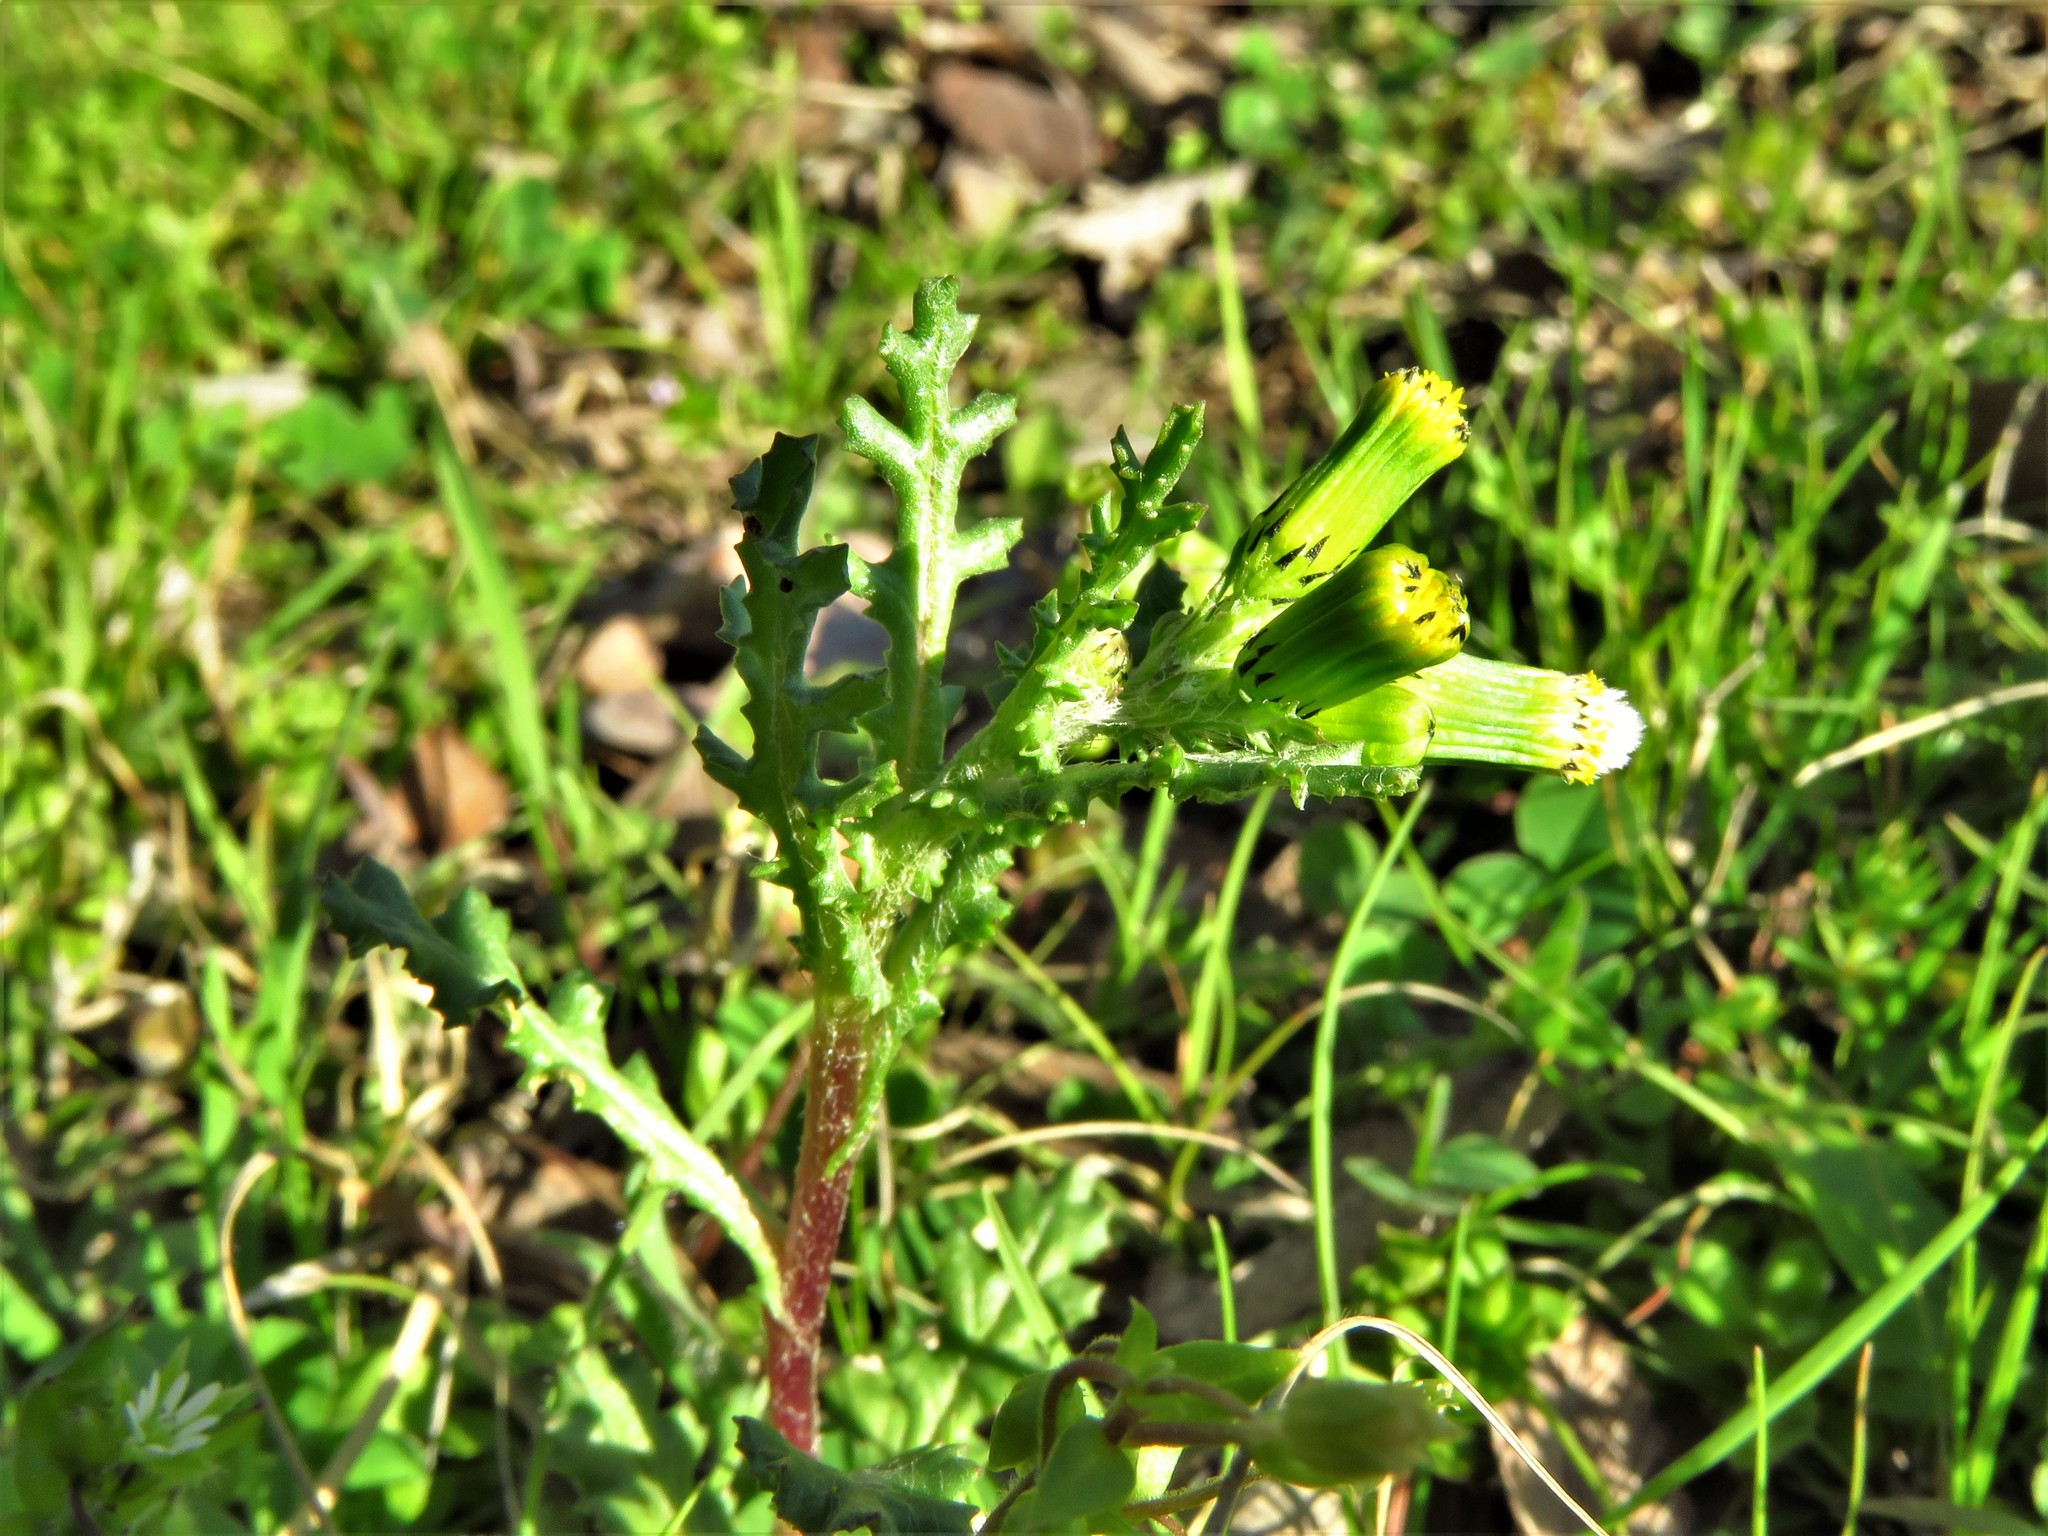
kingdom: Plantae
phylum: Tracheophyta
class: Magnoliopsida
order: Asterales
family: Asteraceae
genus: Senecio
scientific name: Senecio vulgaris
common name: Old-man-in-the-spring
